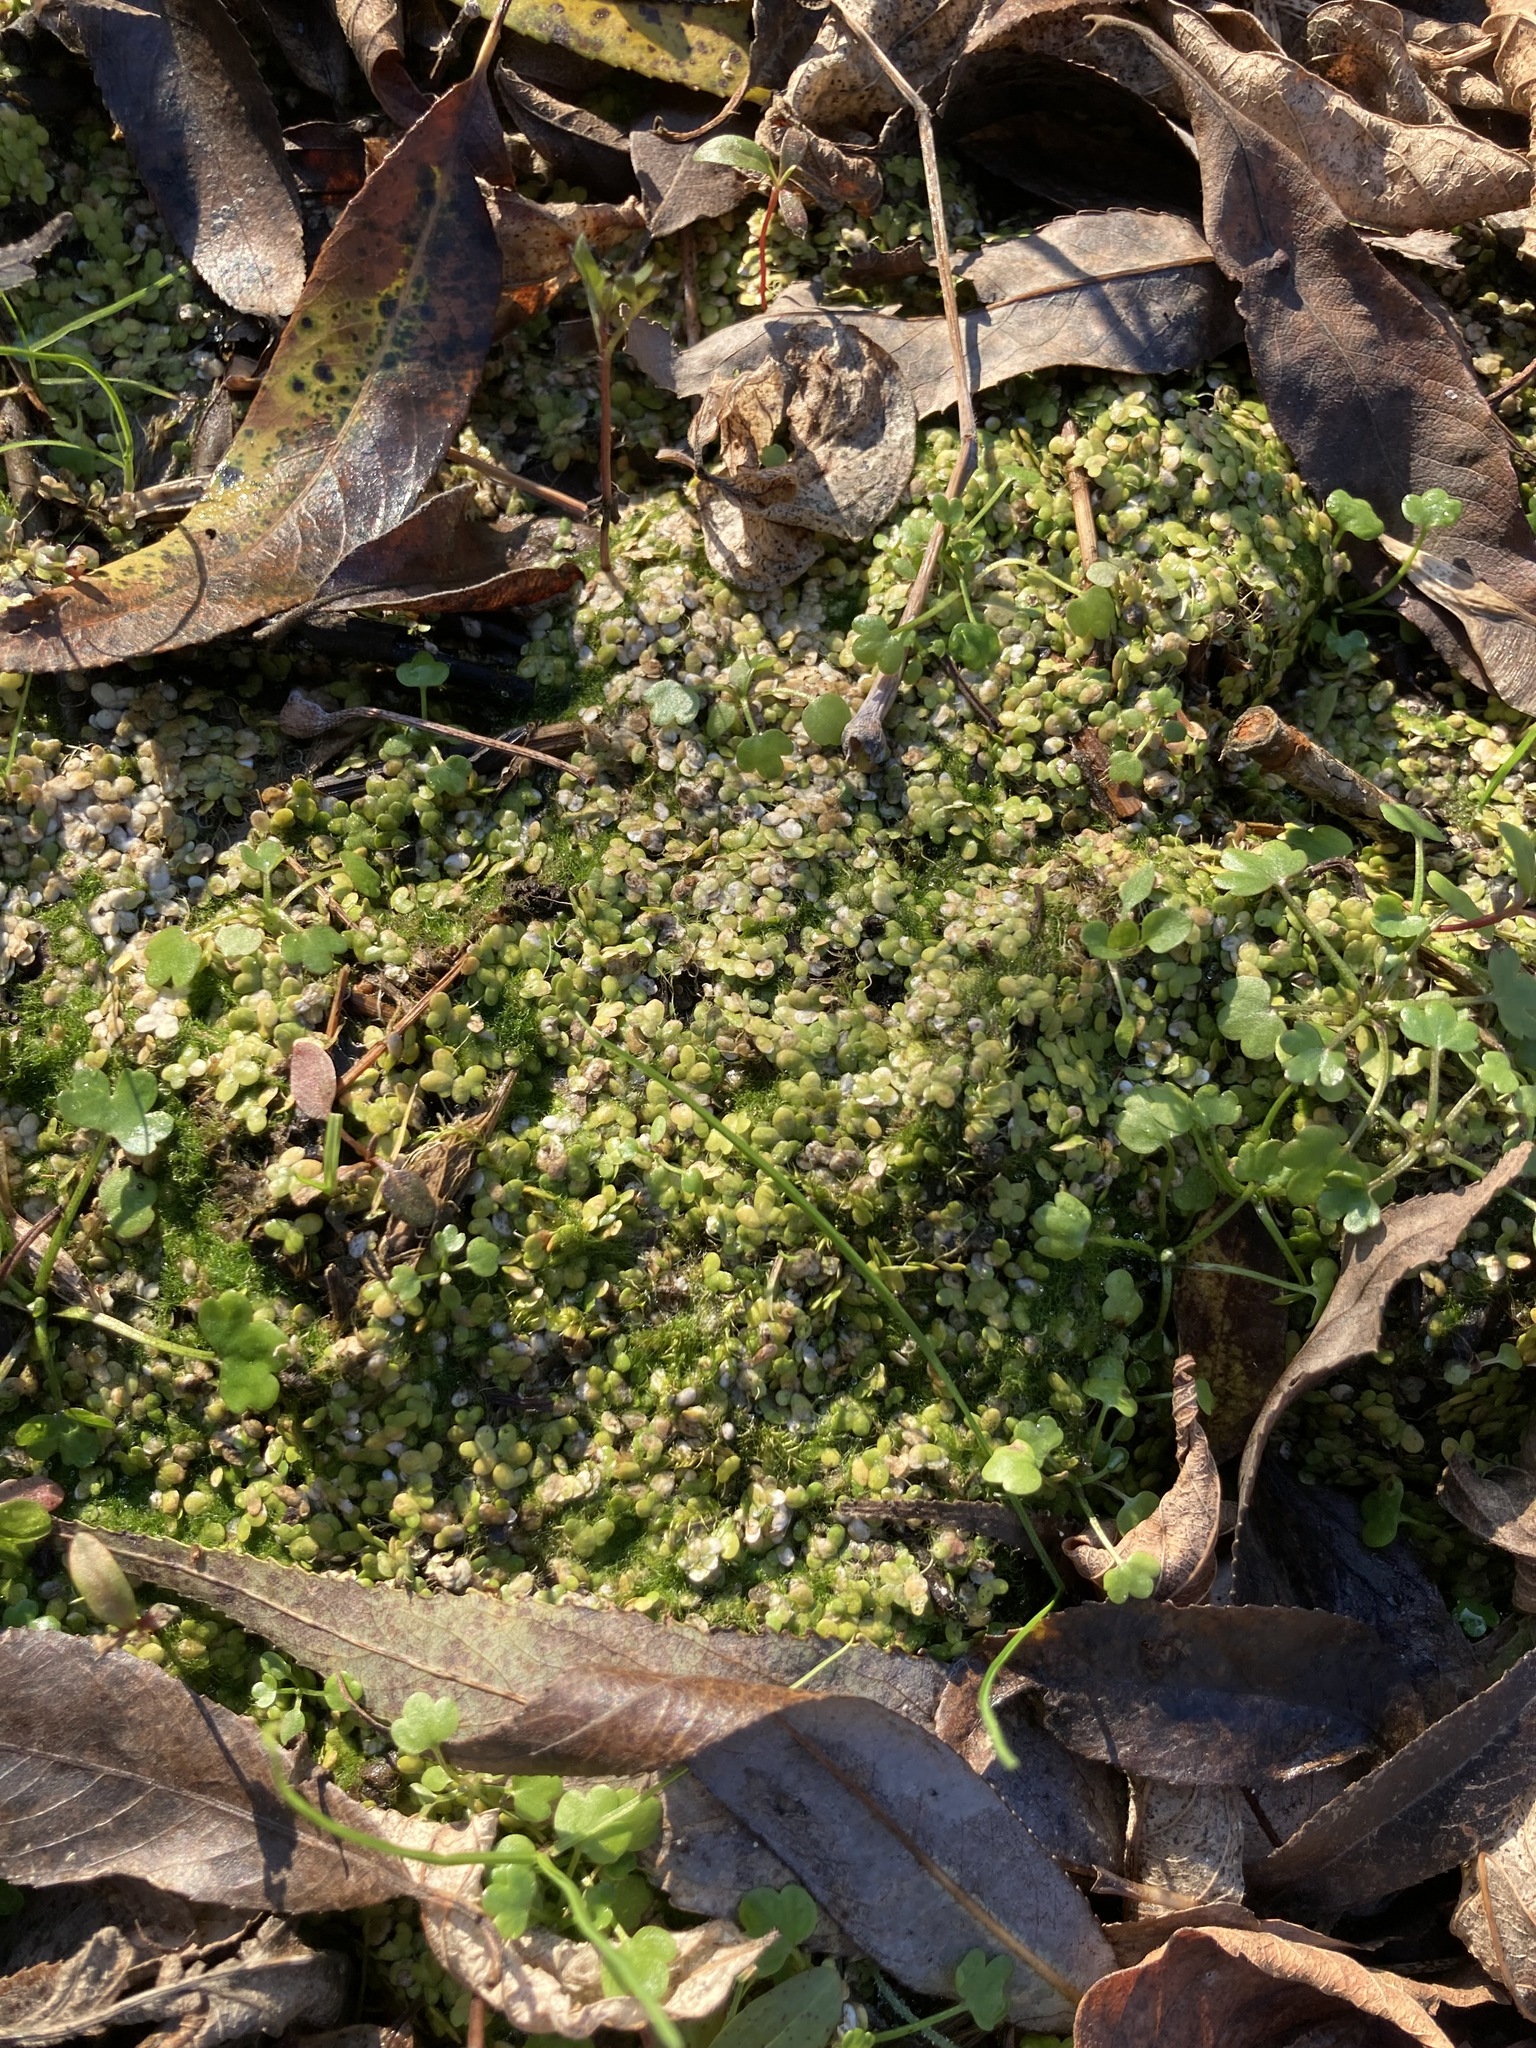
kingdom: Plantae
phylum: Tracheophyta
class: Liliopsida
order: Alismatales
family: Araceae
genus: Lemna
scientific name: Lemna minor
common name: Common duckweed
